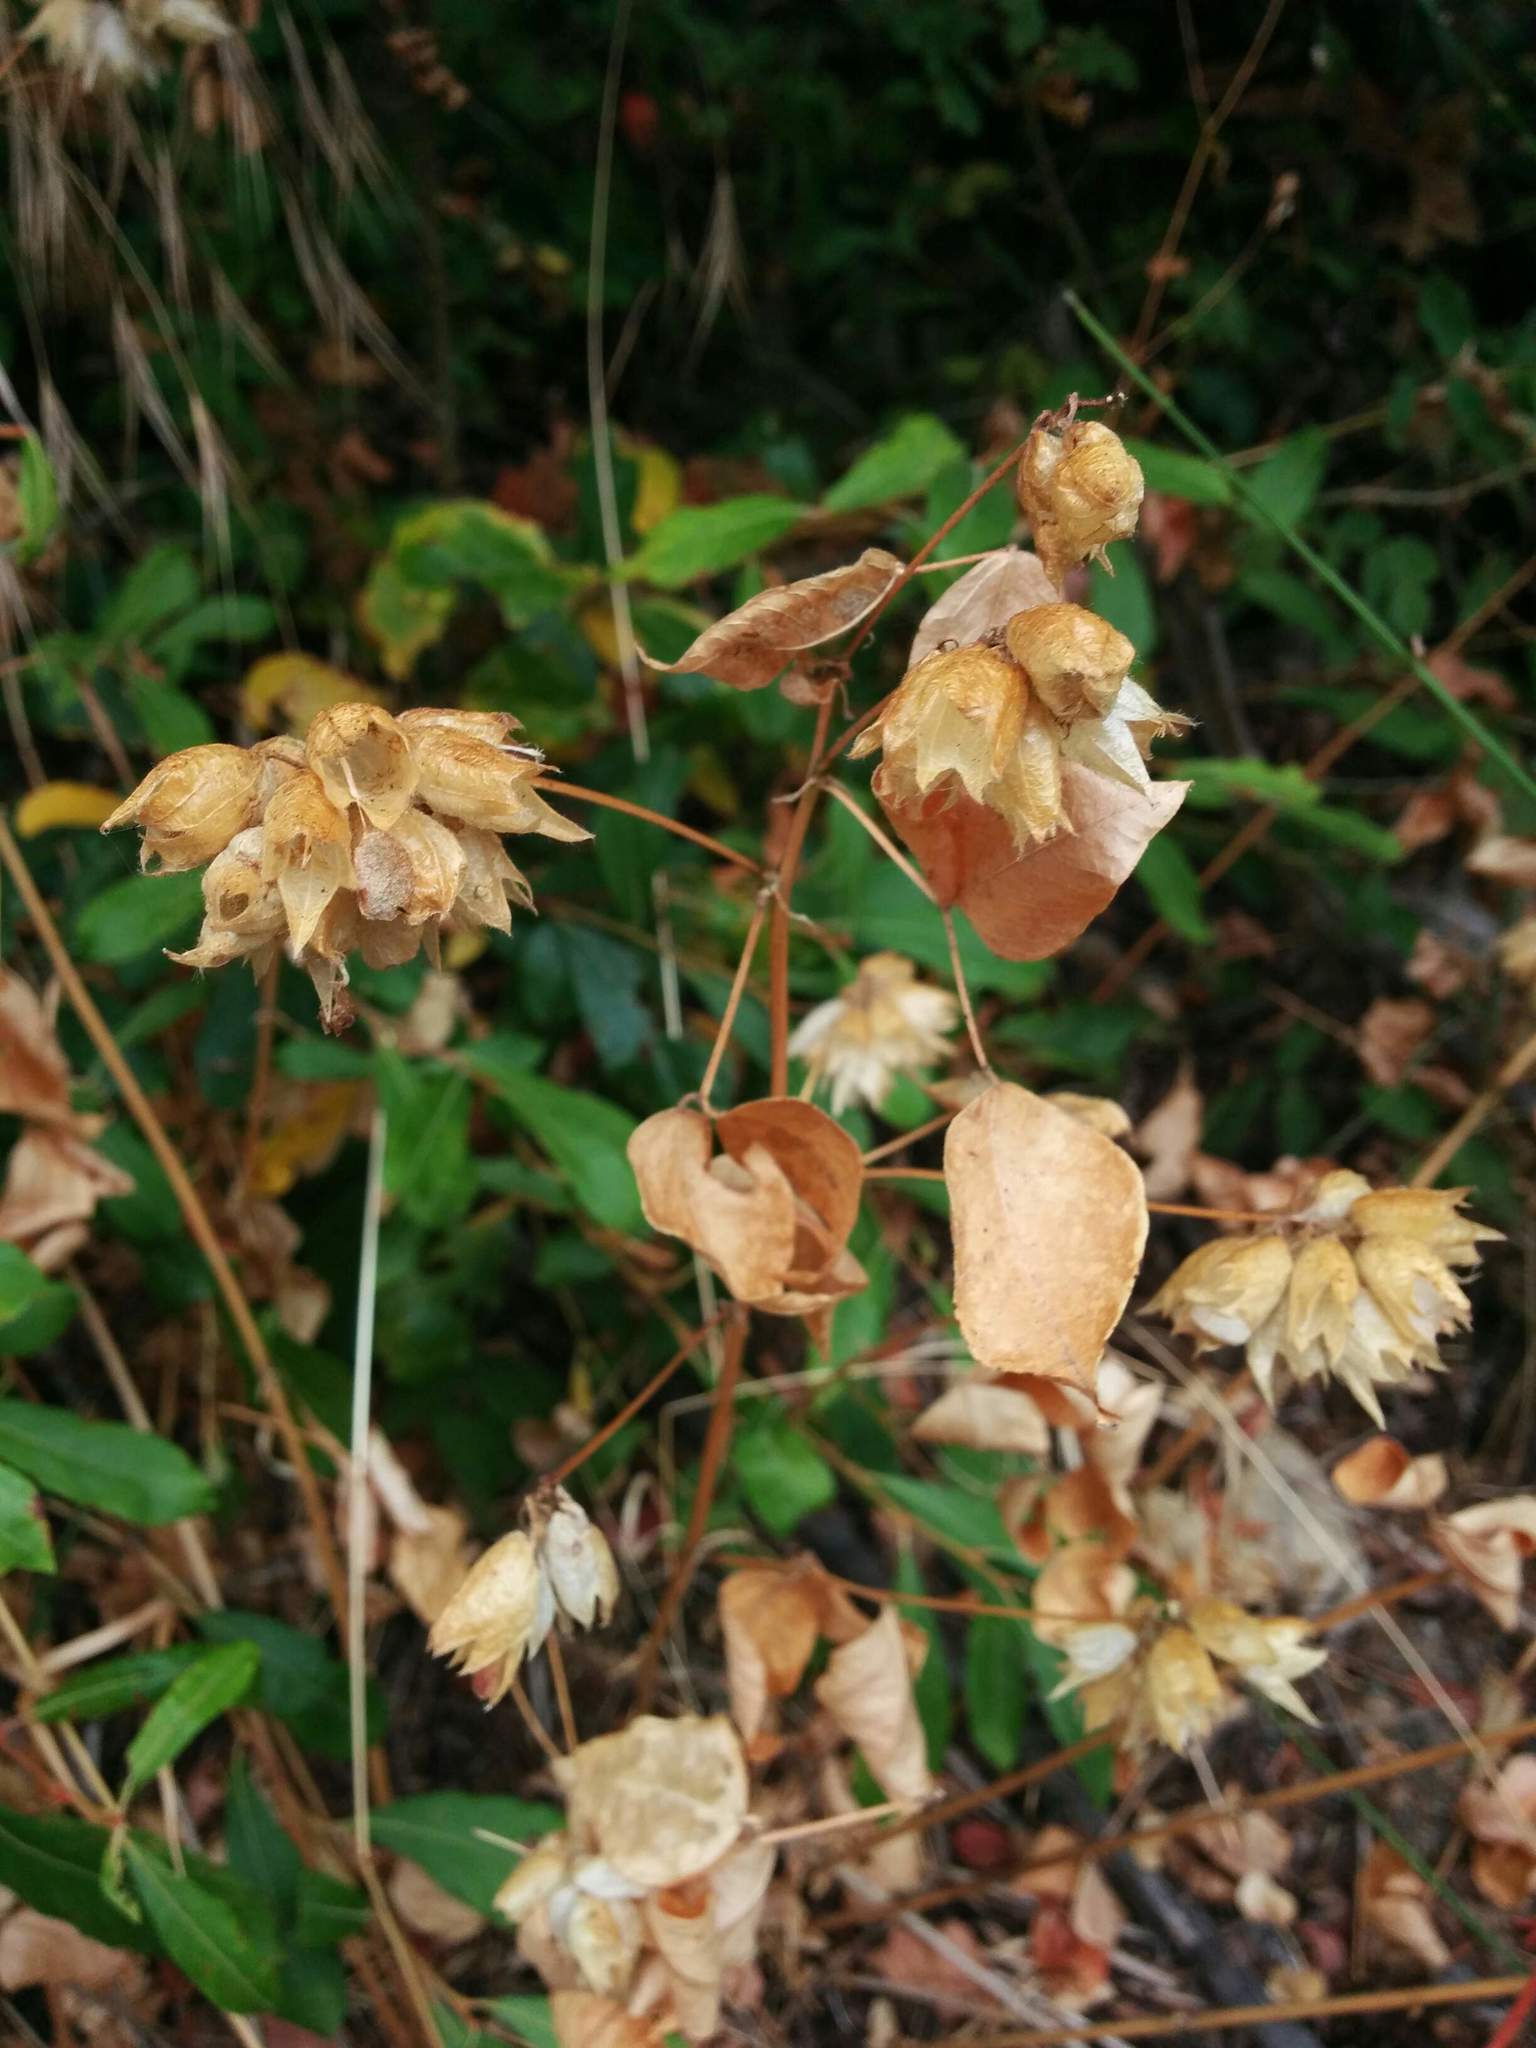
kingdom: Plantae
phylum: Tracheophyta
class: Magnoliopsida
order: Fabales
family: Fabaceae
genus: Rupertia
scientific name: Rupertia physodes
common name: California-tea
